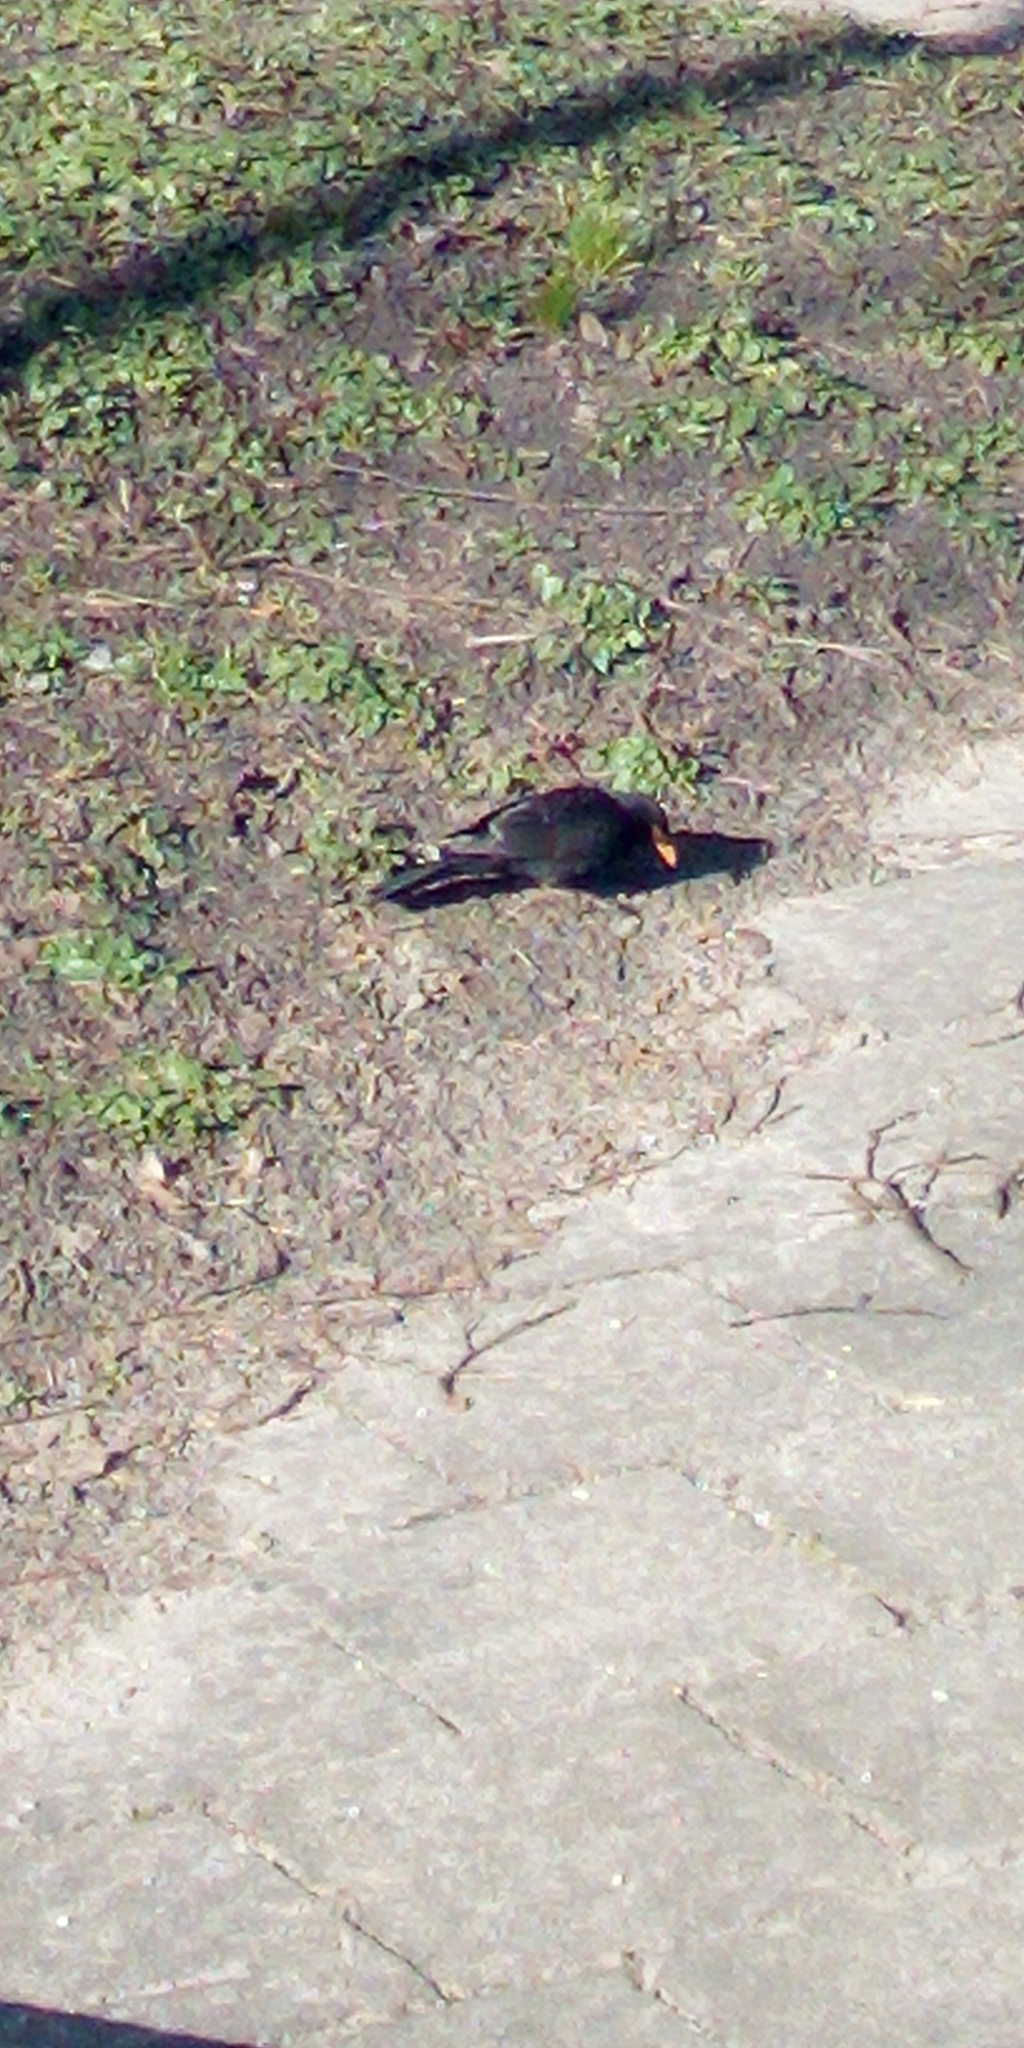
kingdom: Animalia
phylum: Chordata
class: Aves
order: Passeriformes
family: Turdidae
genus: Turdus
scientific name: Turdus merula
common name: Common blackbird
